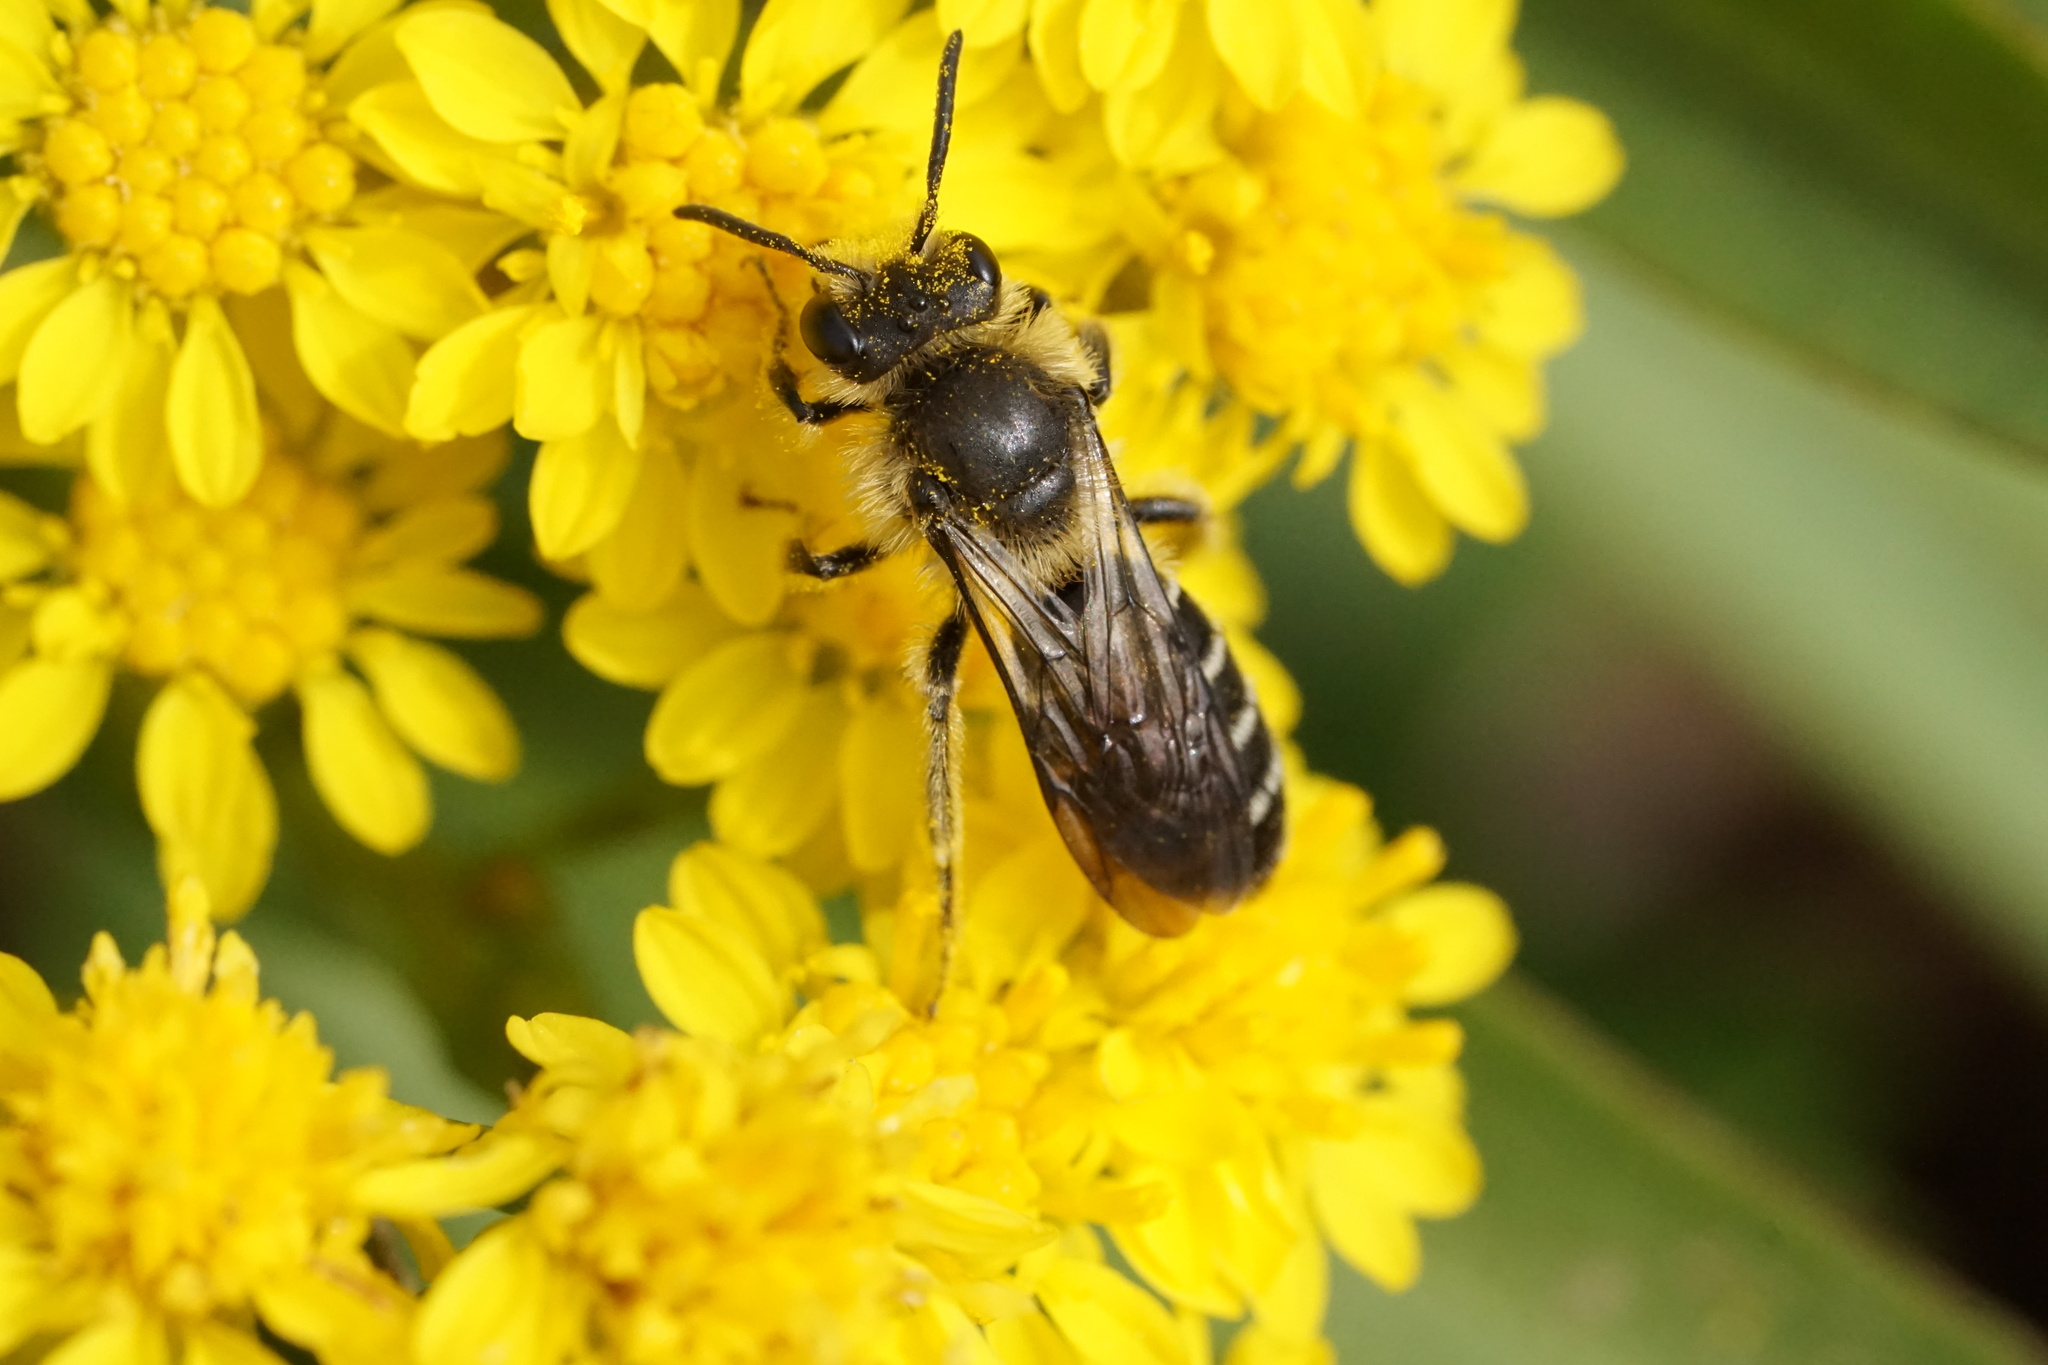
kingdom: Animalia
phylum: Arthropoda
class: Insecta
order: Hymenoptera
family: Andrenidae
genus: Andrena
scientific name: Andrena asteris
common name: Aster mining bee
